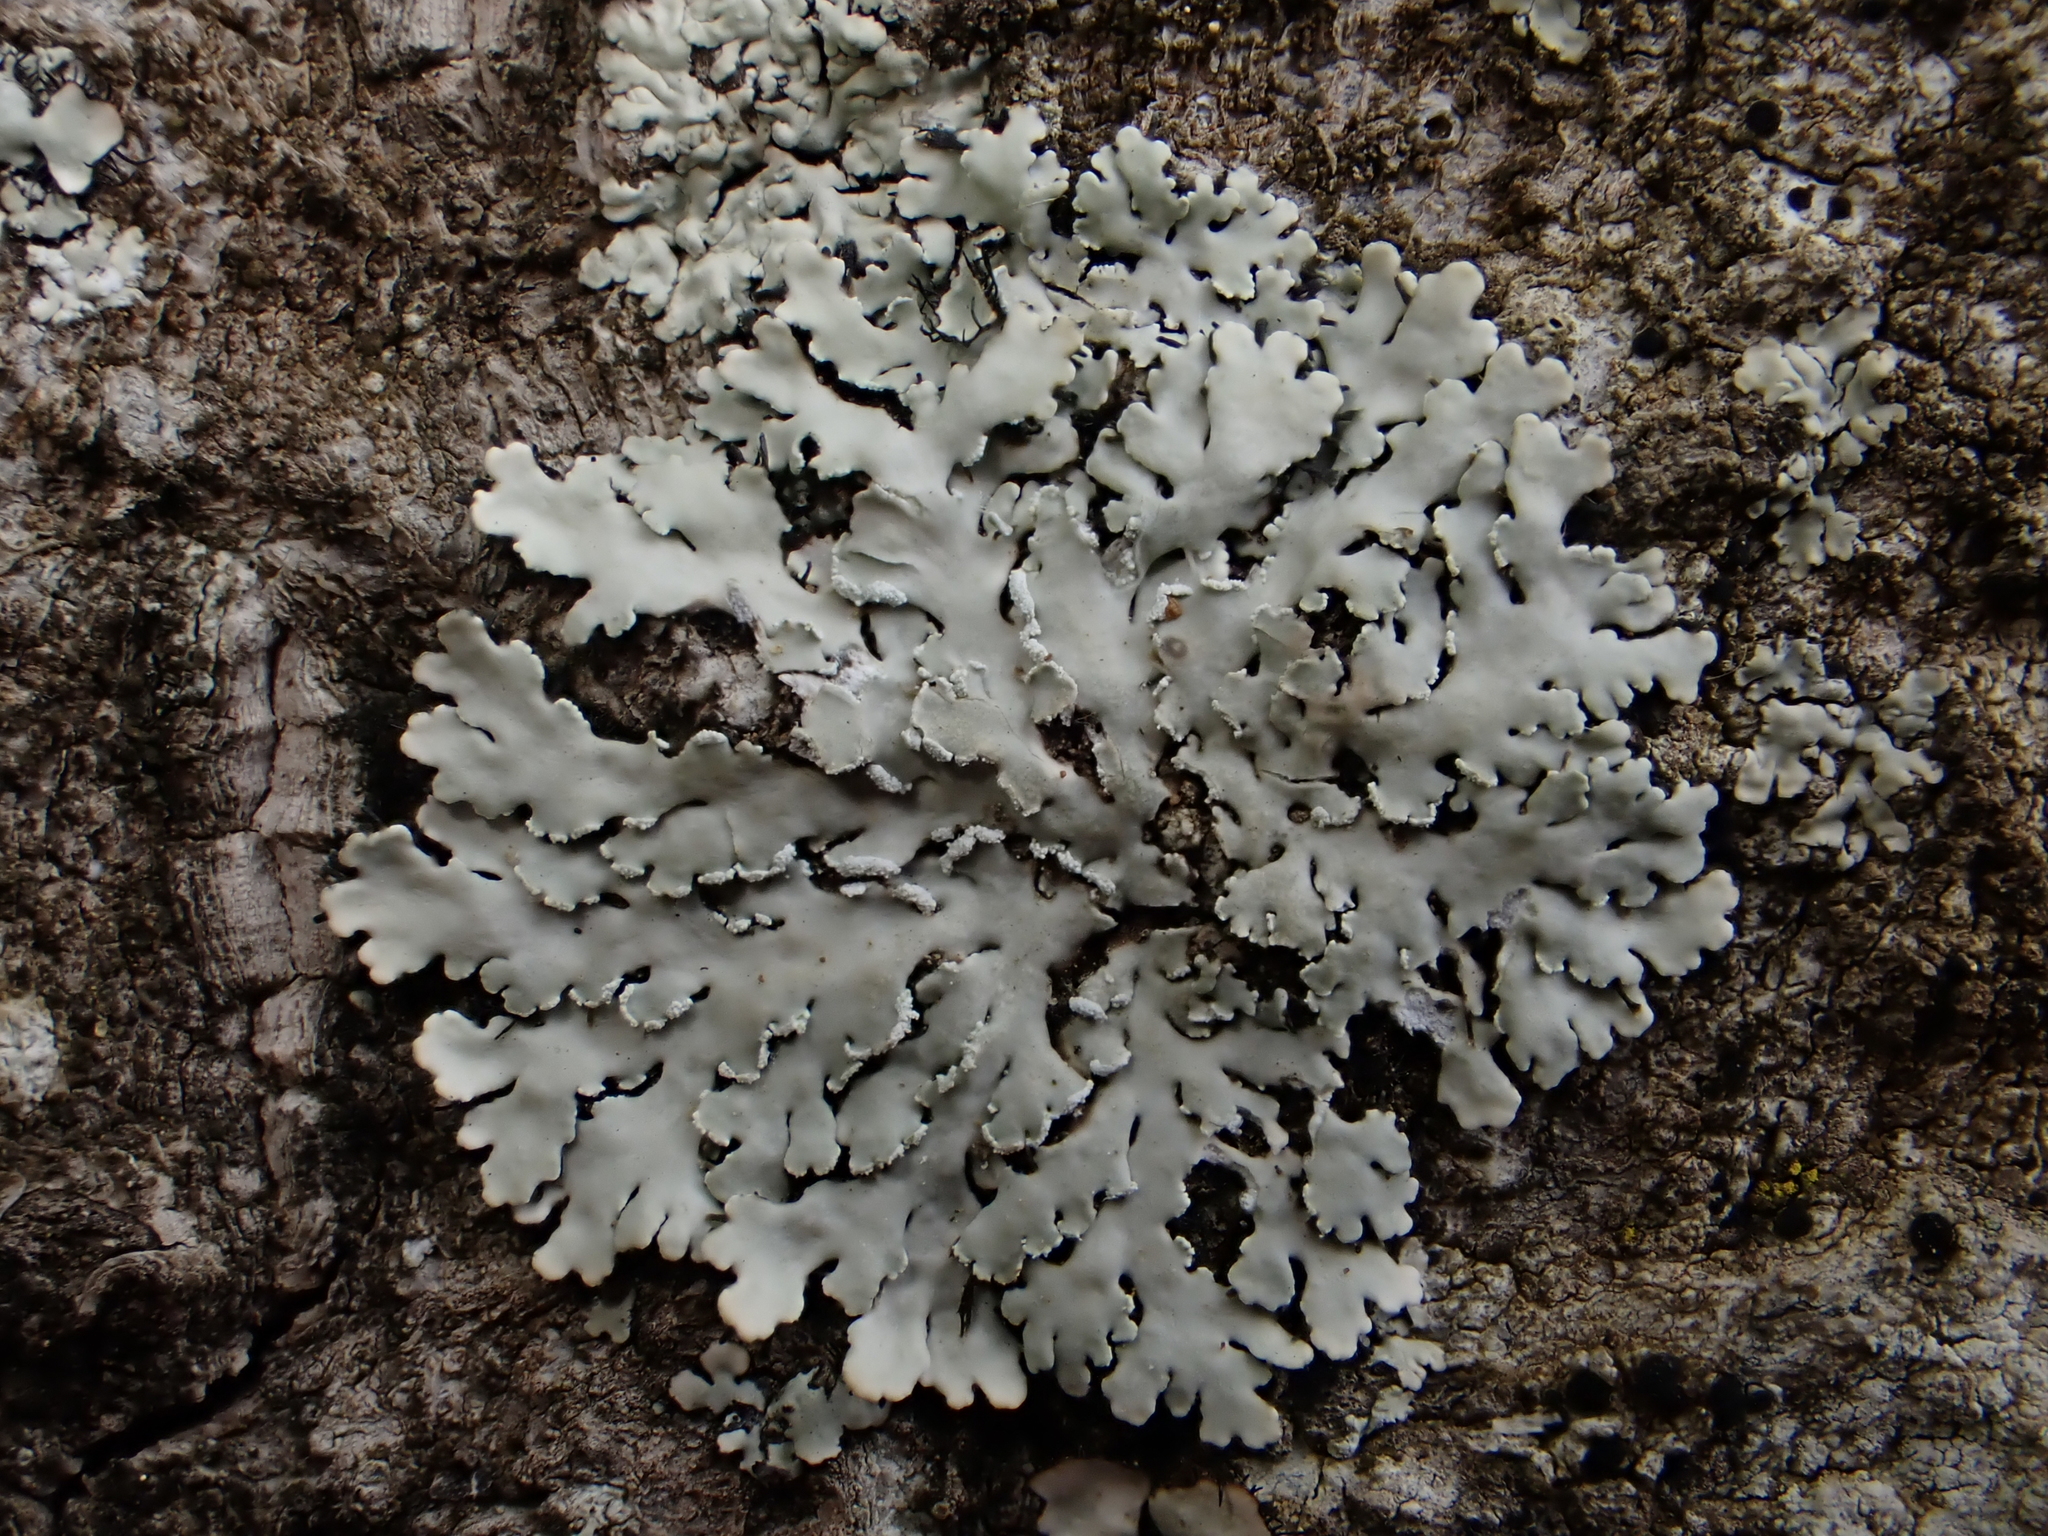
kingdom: Fungi
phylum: Ascomycota
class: Lecanoromycetes
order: Caliciales
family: Physciaceae
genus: Heterodermia
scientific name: Heterodermia speciosa
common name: Powdered fringe lichen
